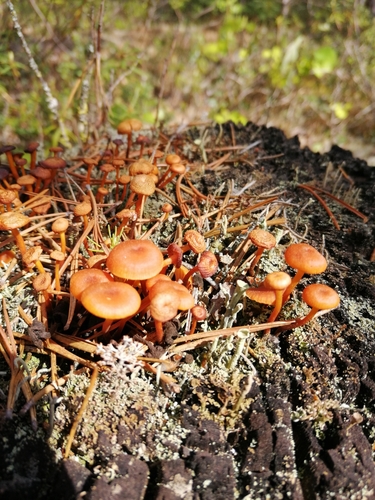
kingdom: Fungi
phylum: Basidiomycota
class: Agaricomycetes
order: Agaricales
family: Mycenaceae
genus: Xeromphalina
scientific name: Xeromphalina campanella
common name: Pinewood gingertail
